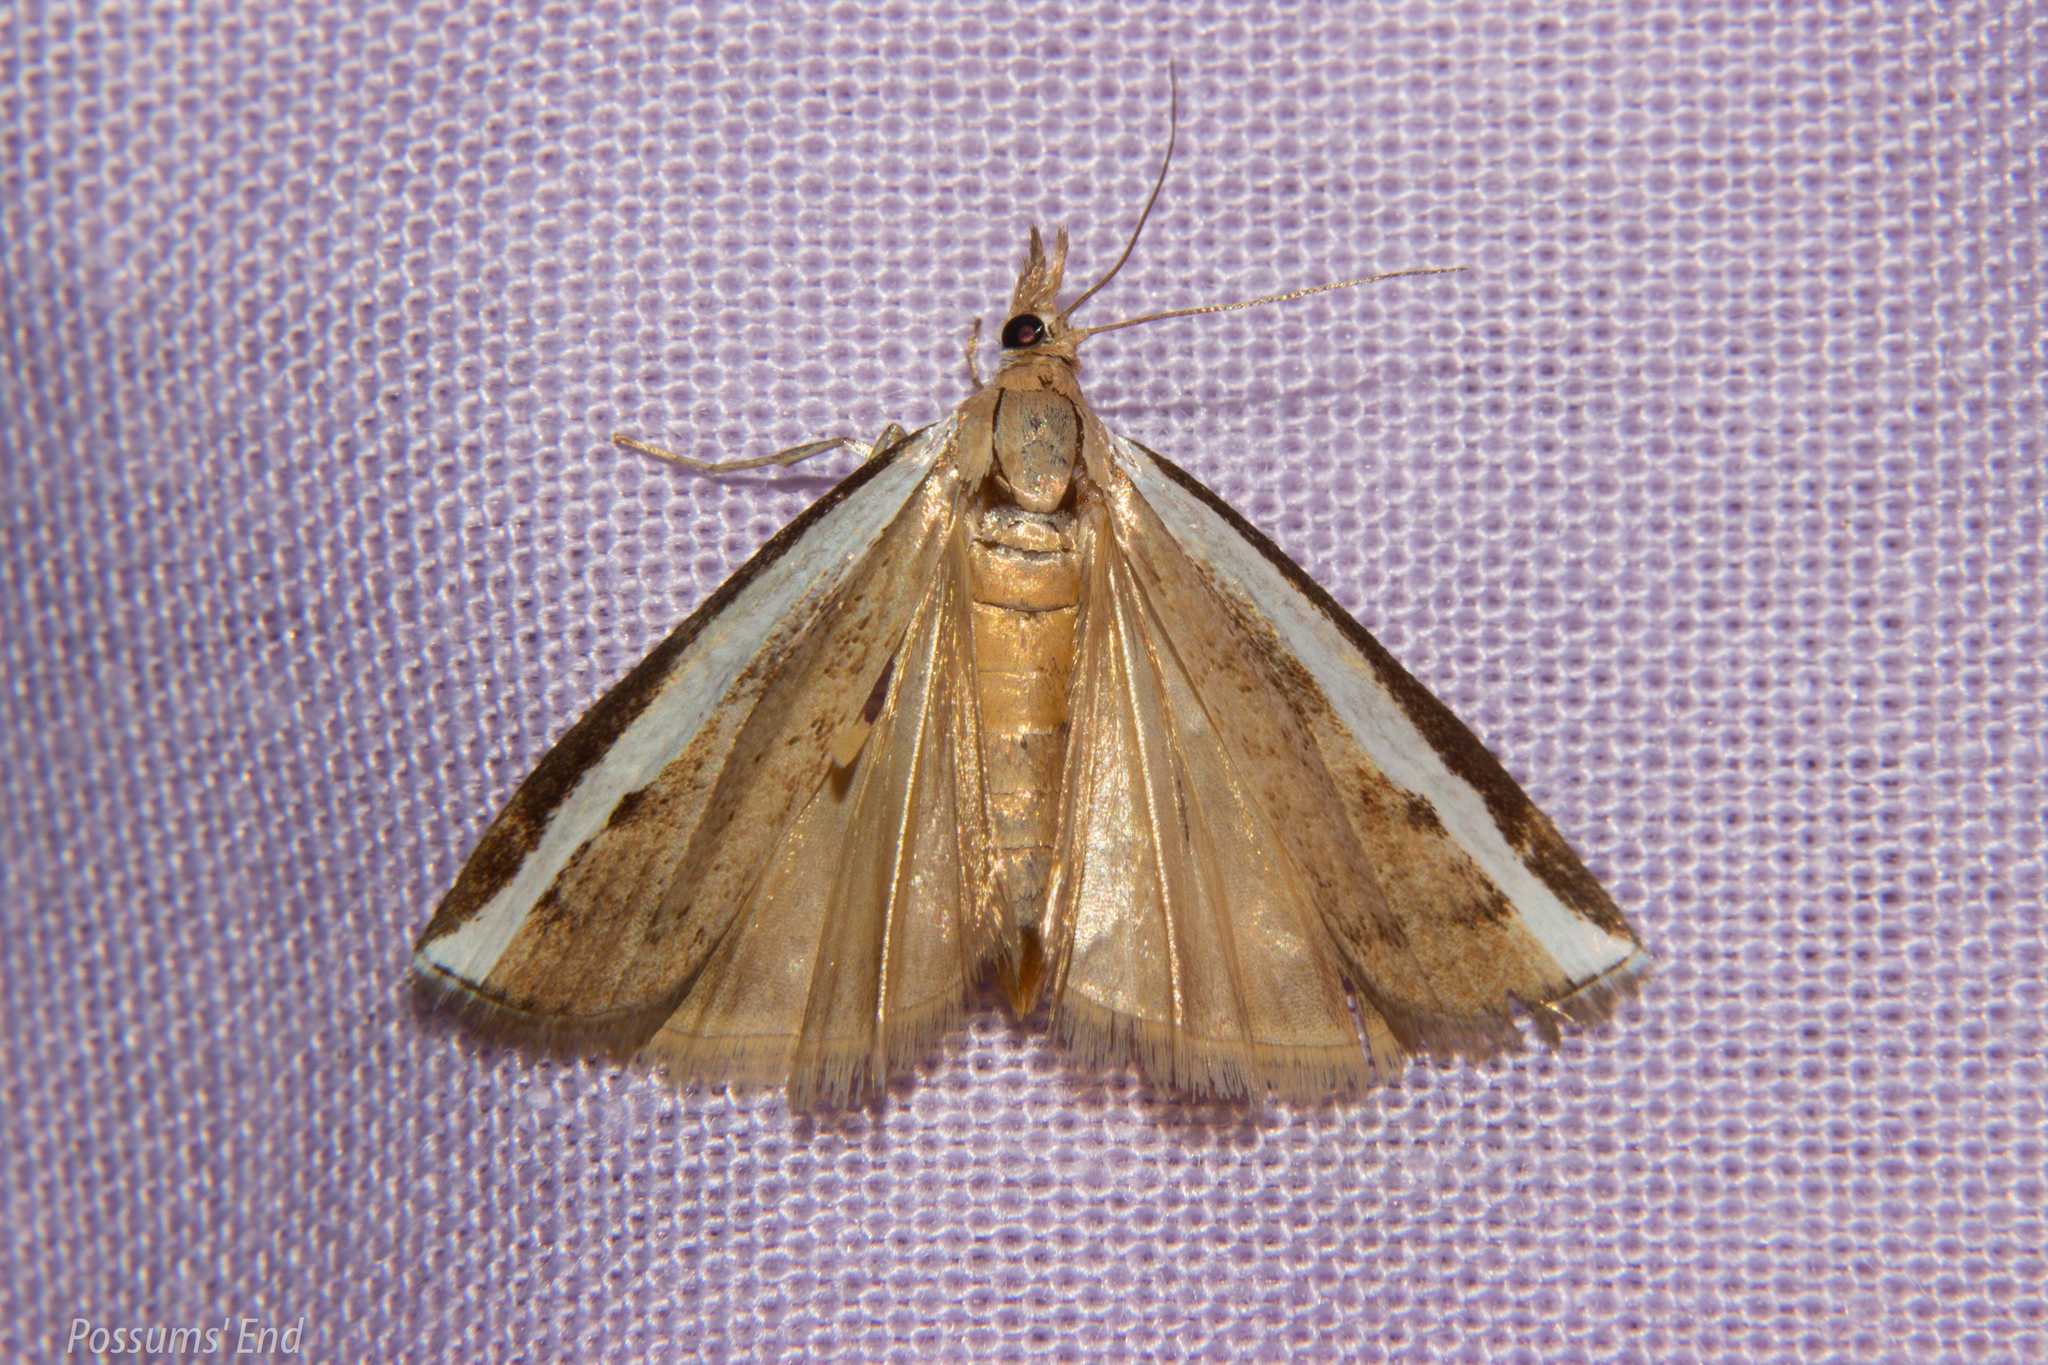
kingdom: Animalia
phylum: Arthropoda
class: Insecta
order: Lepidoptera
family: Crambidae
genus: Orocrambus
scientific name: Orocrambus flexuosellus
